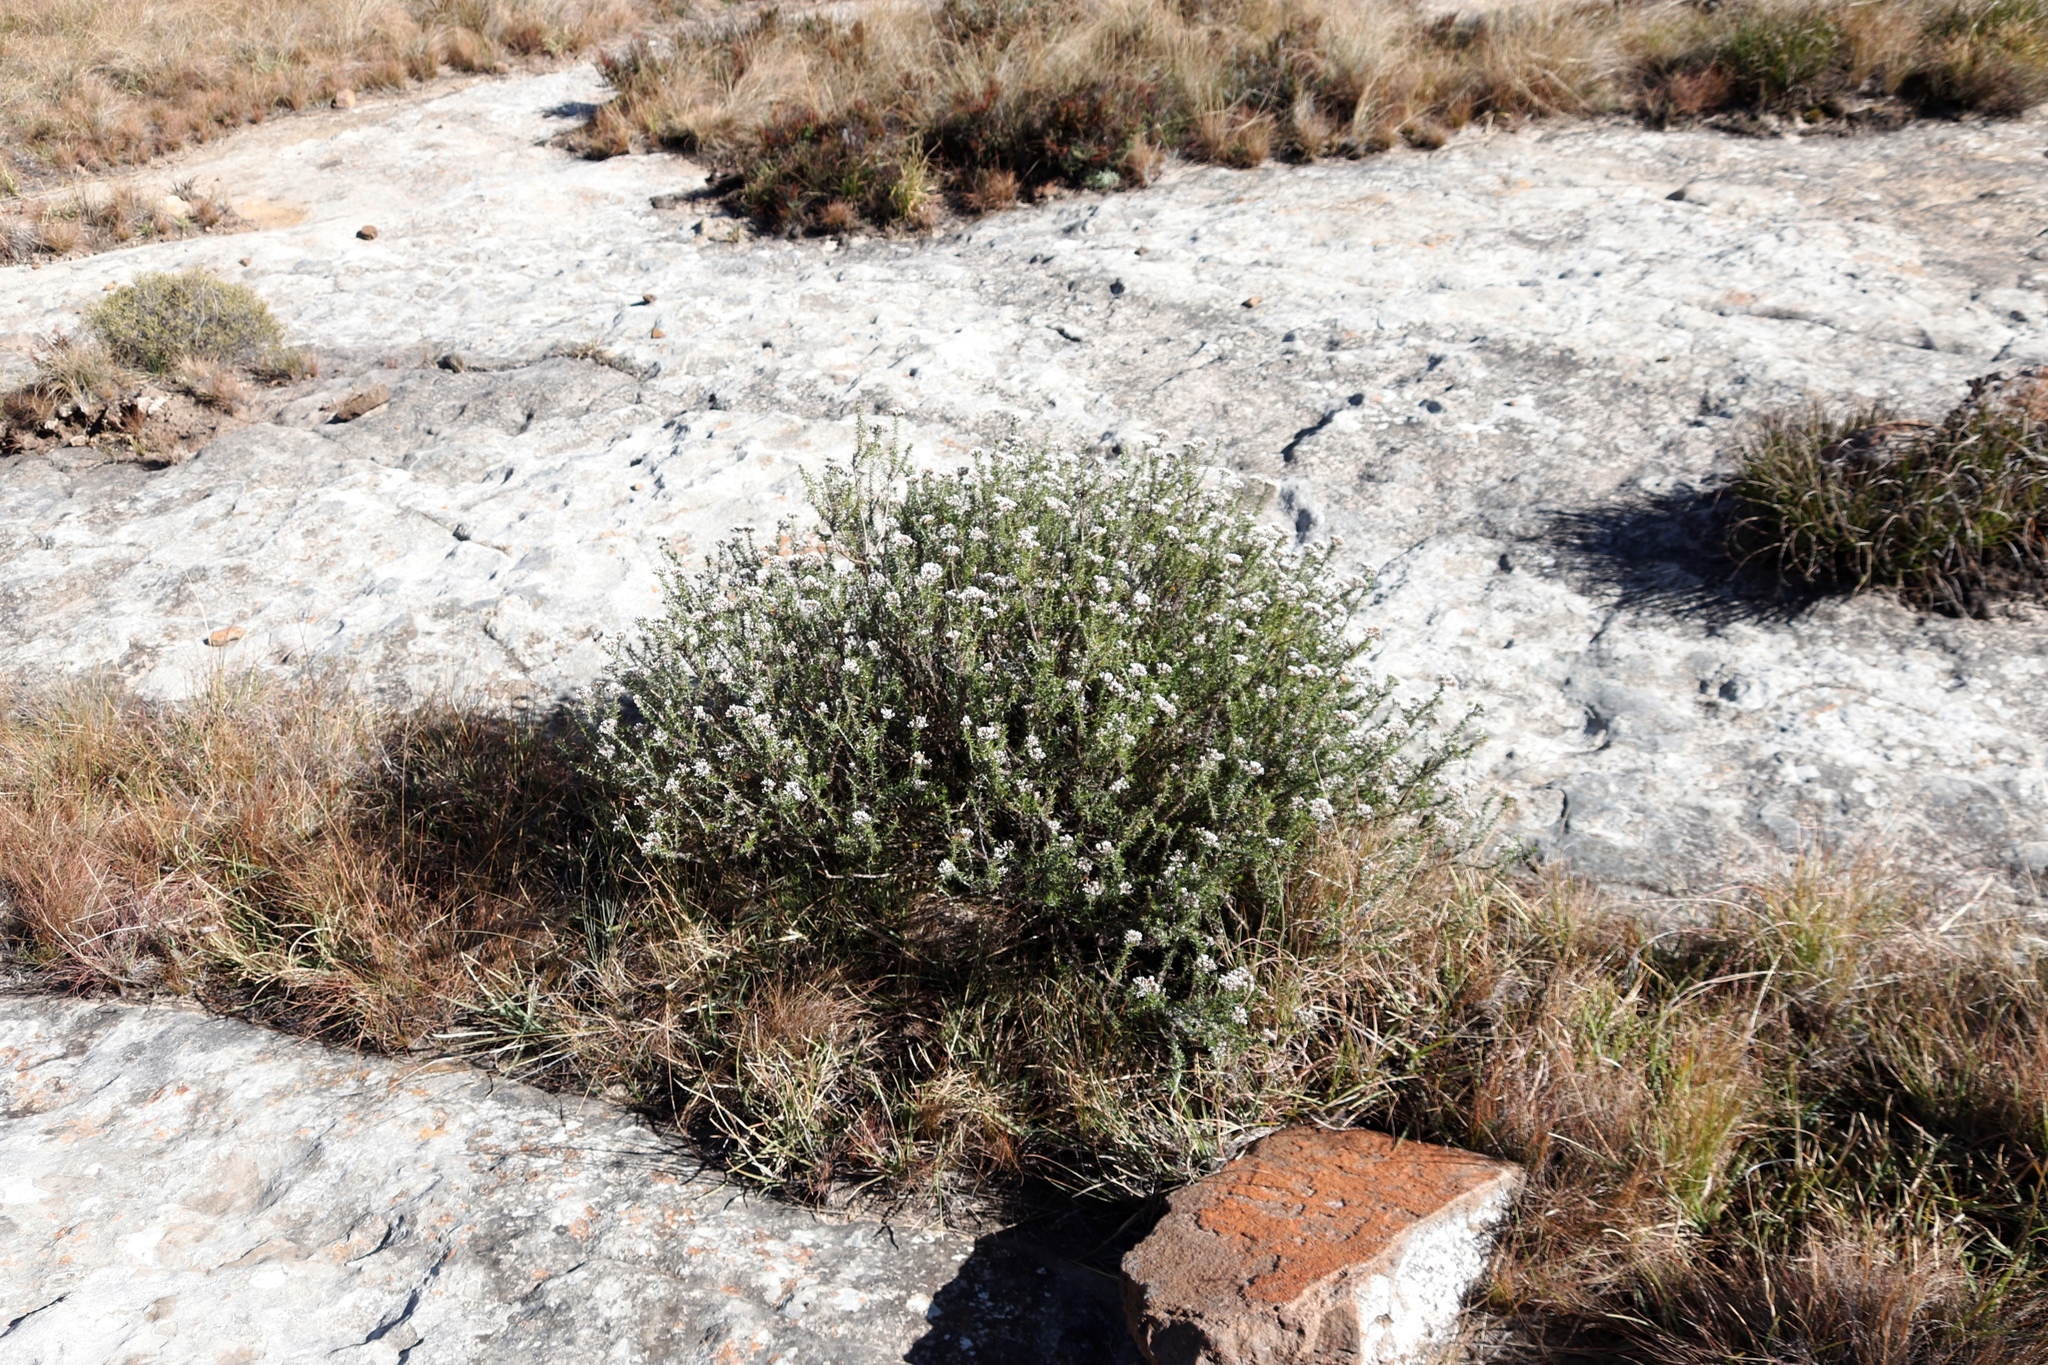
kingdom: Plantae
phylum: Tracheophyta
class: Magnoliopsida
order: Asterales
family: Asteraceae
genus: Metalasia
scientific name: Metalasia densa
